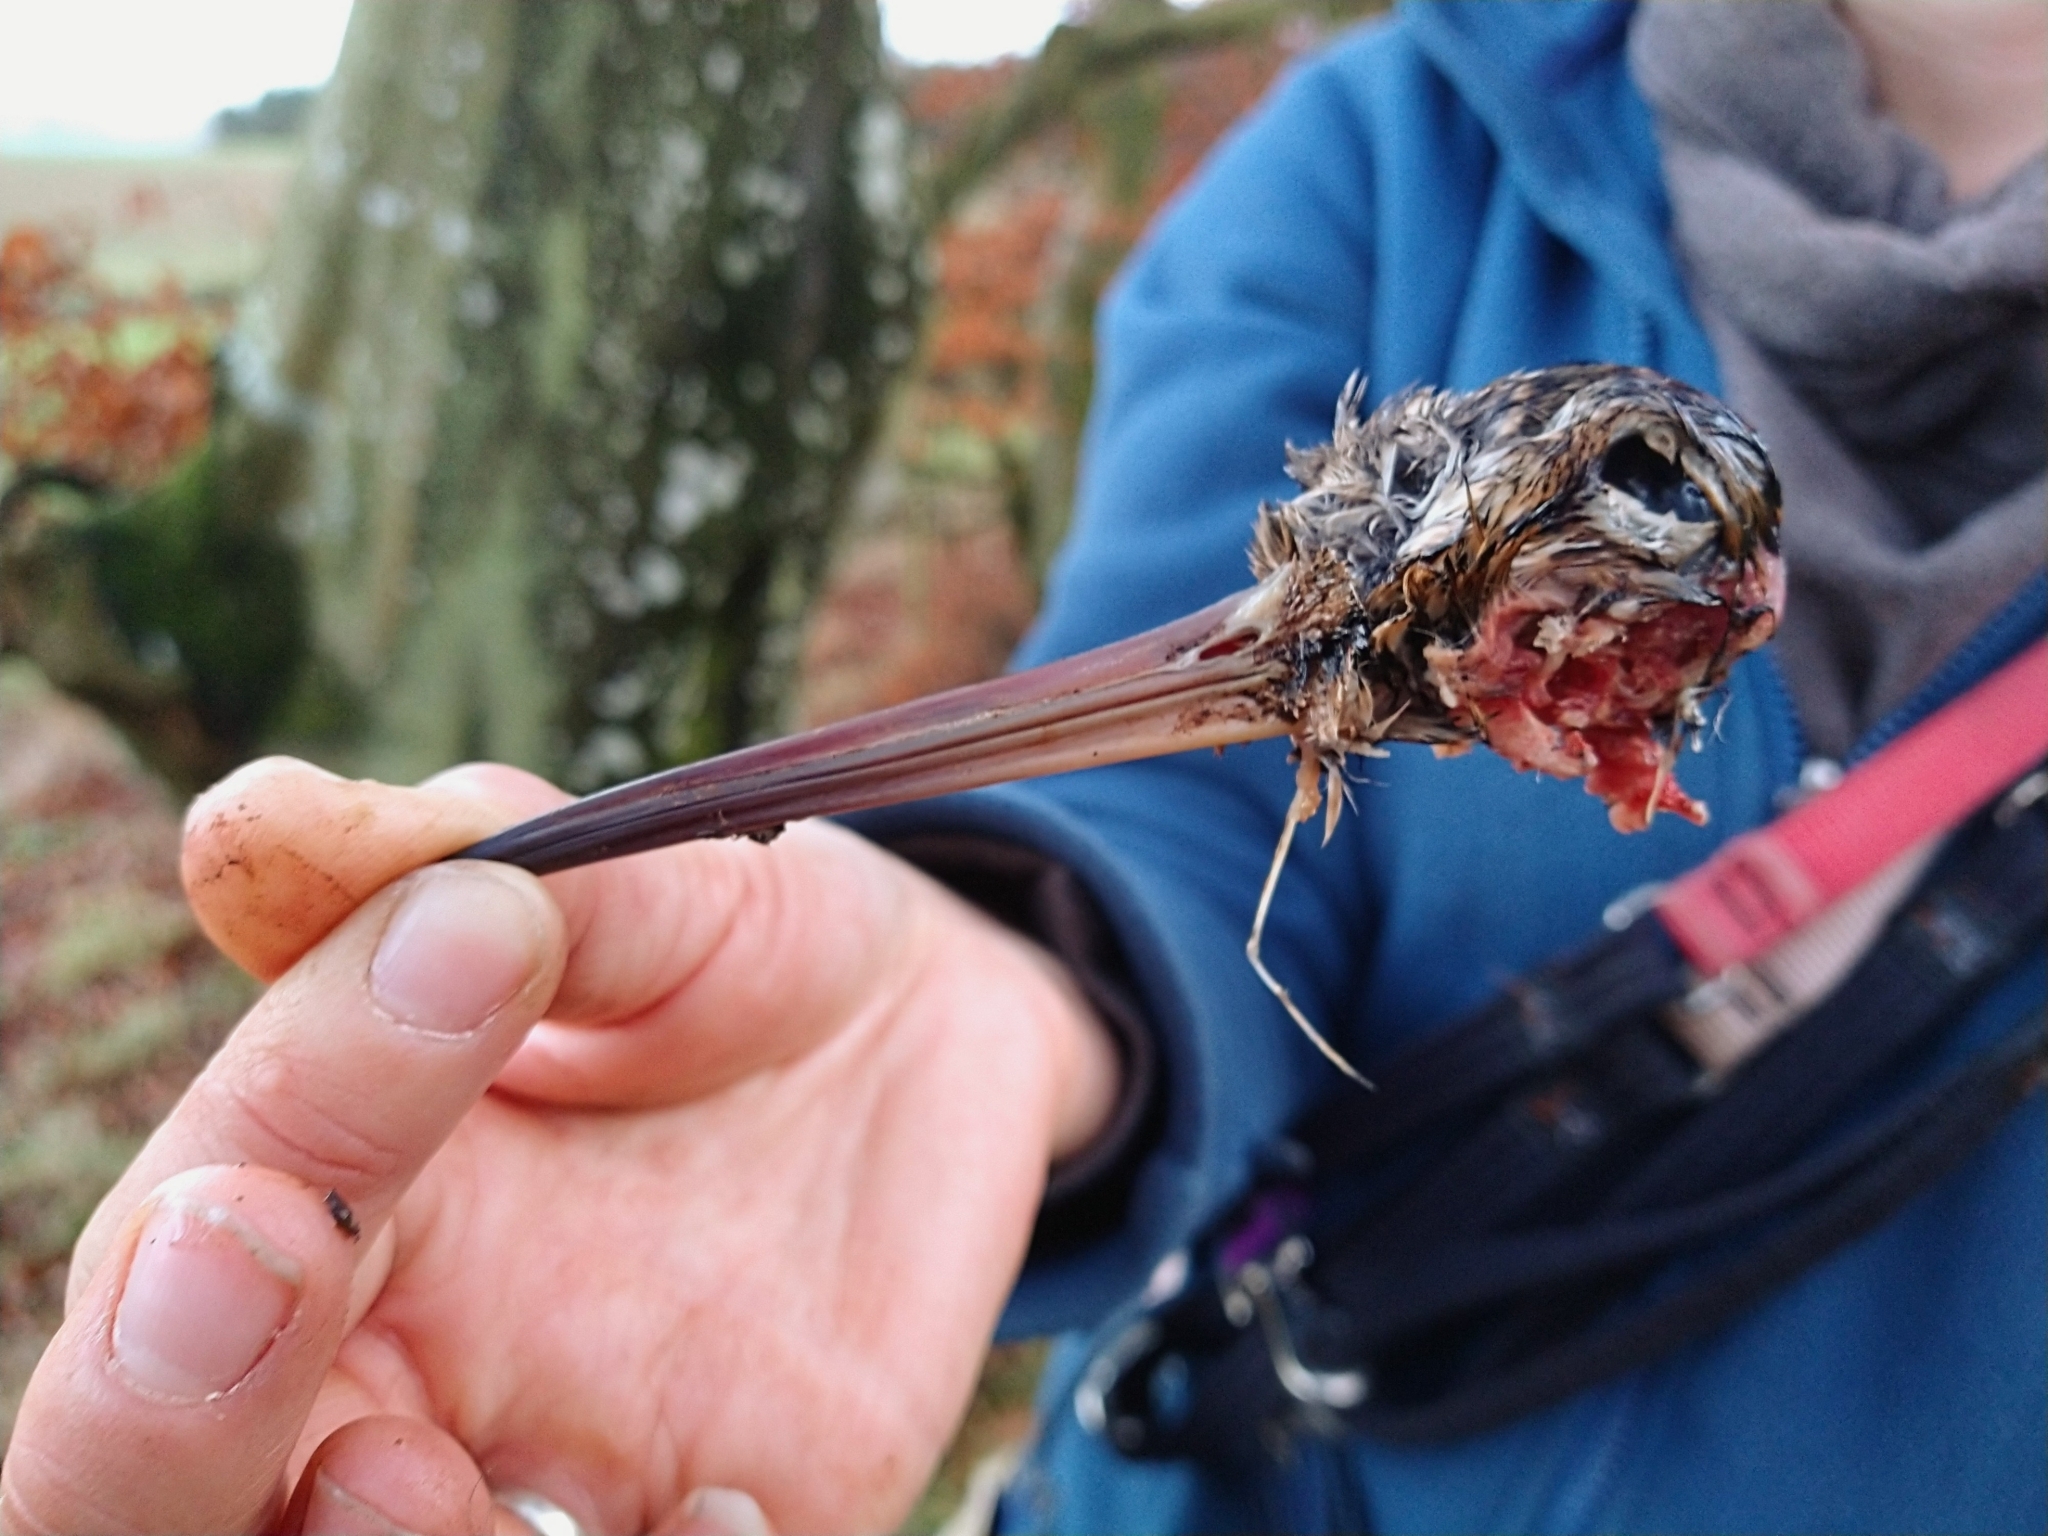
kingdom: Animalia
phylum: Chordata
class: Aves
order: Charadriiformes
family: Scolopacidae
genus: Scolopax
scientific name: Scolopax rusticola
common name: Eurasian woodcock
